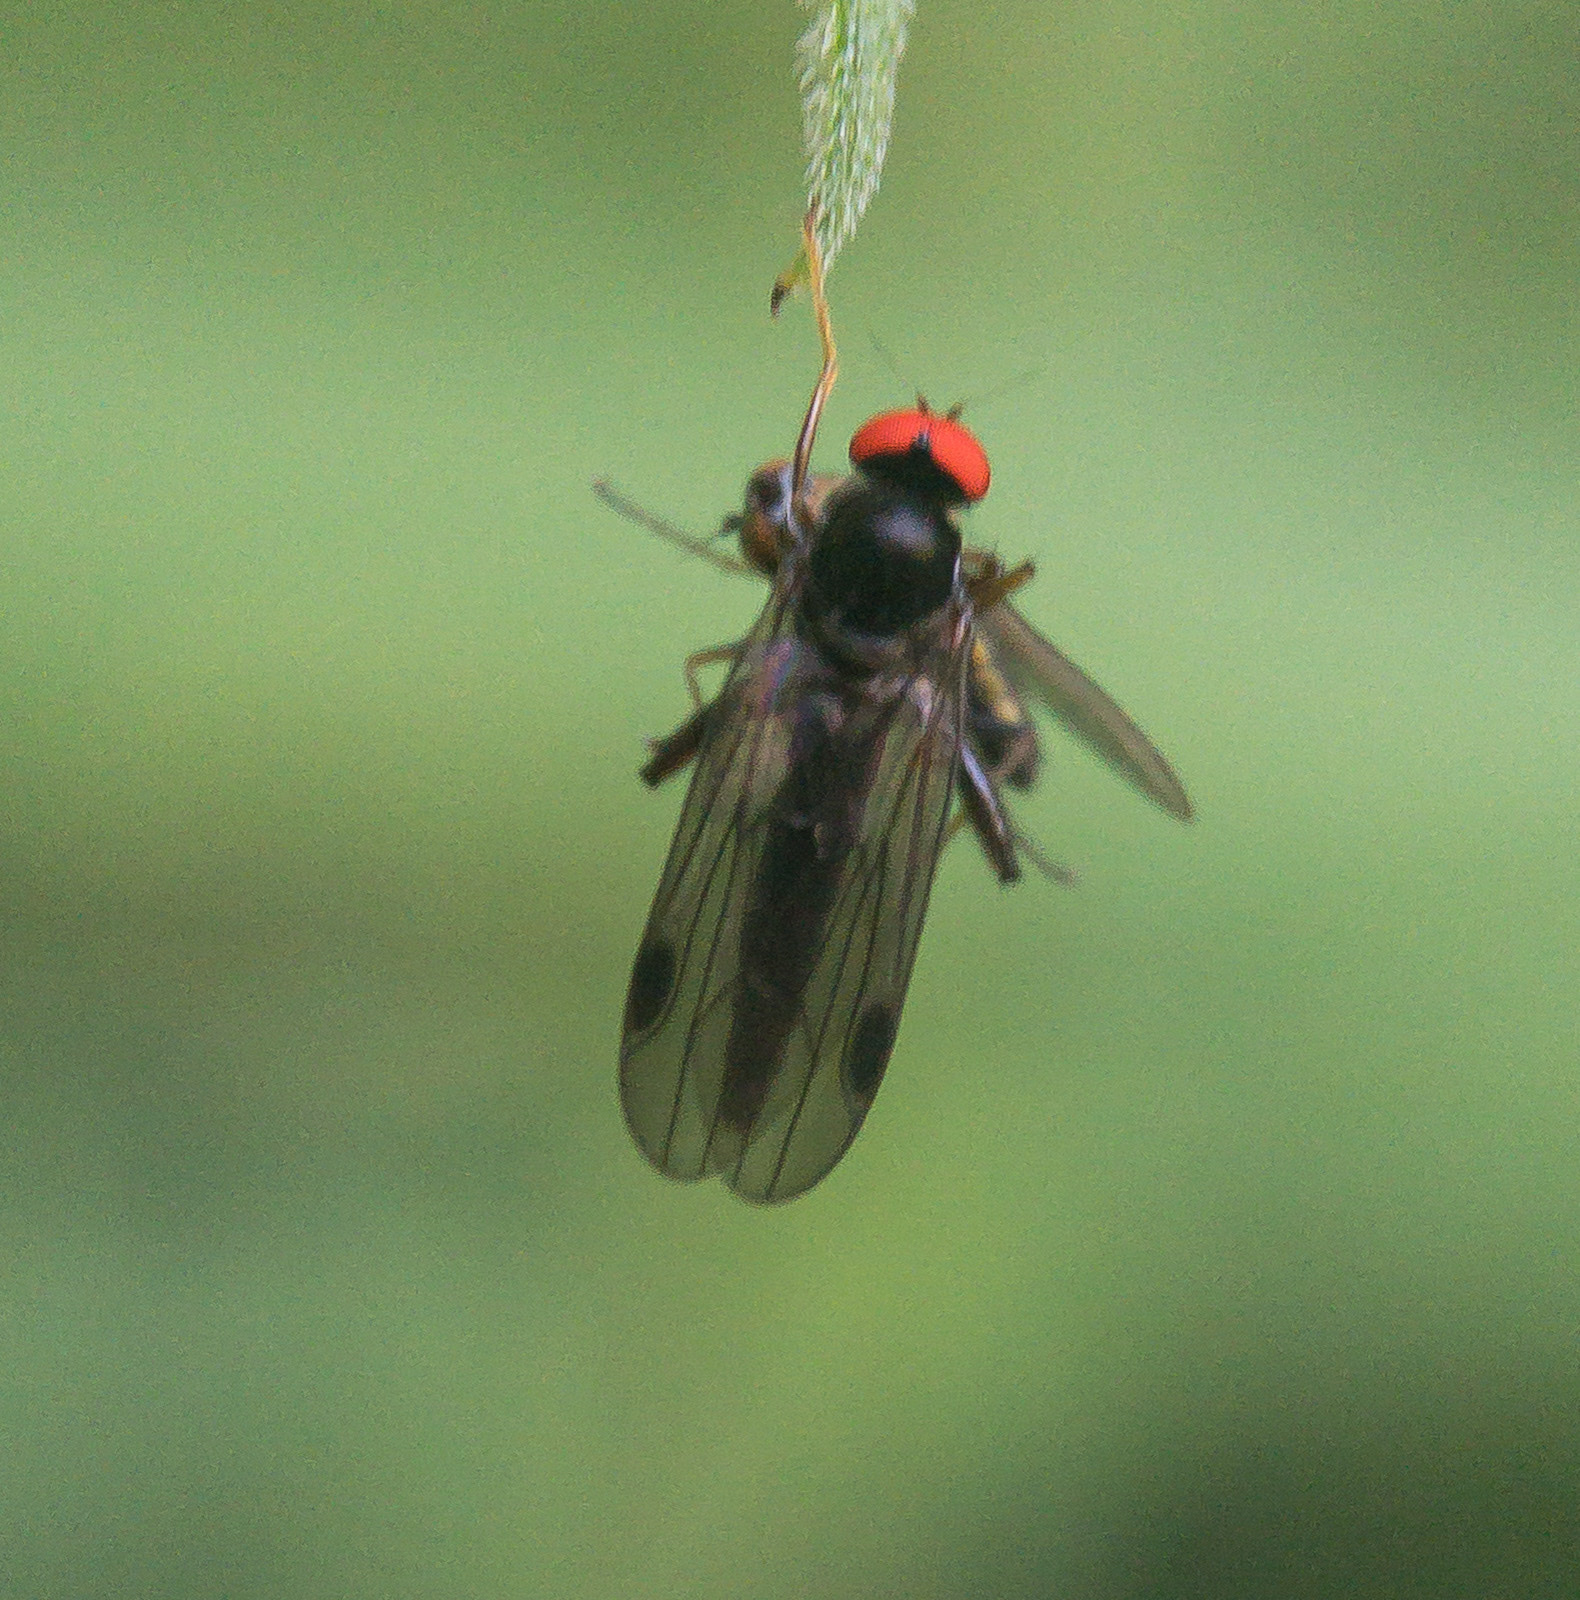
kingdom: Animalia
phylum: Arthropoda
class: Insecta
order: Diptera
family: Hybotidae
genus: Syneches
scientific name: Syneches thoracicus
